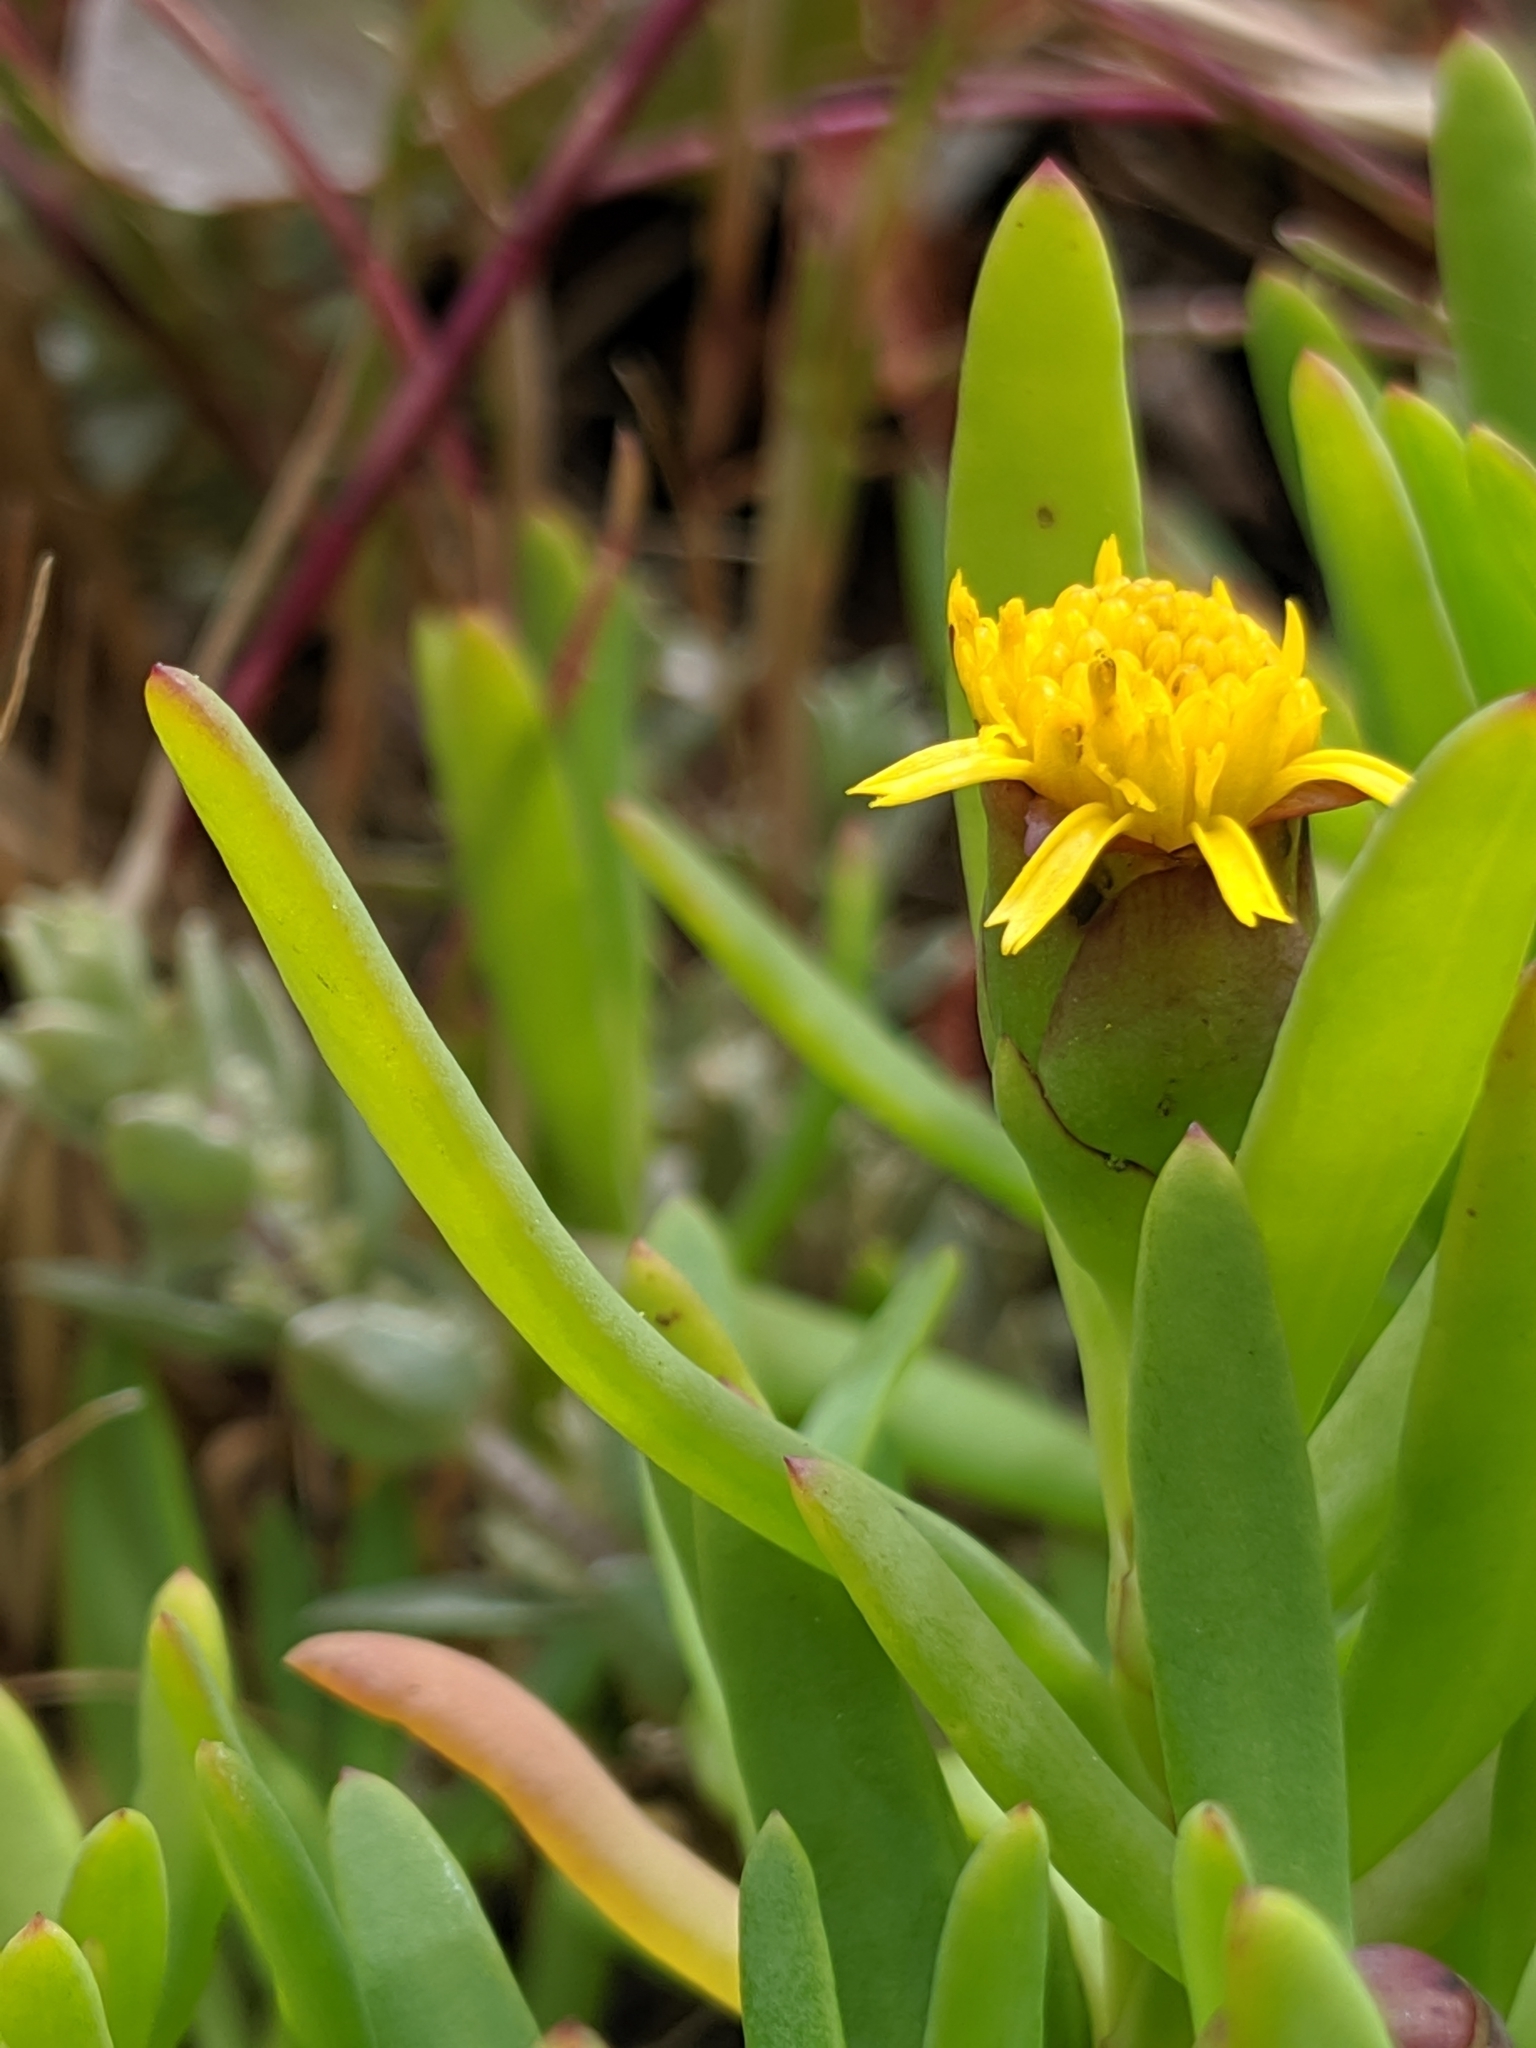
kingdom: Plantae
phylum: Tracheophyta
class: Magnoliopsida
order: Asterales
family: Asteraceae
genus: Jaumea
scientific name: Jaumea carnosa
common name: Fleshy jaumea
